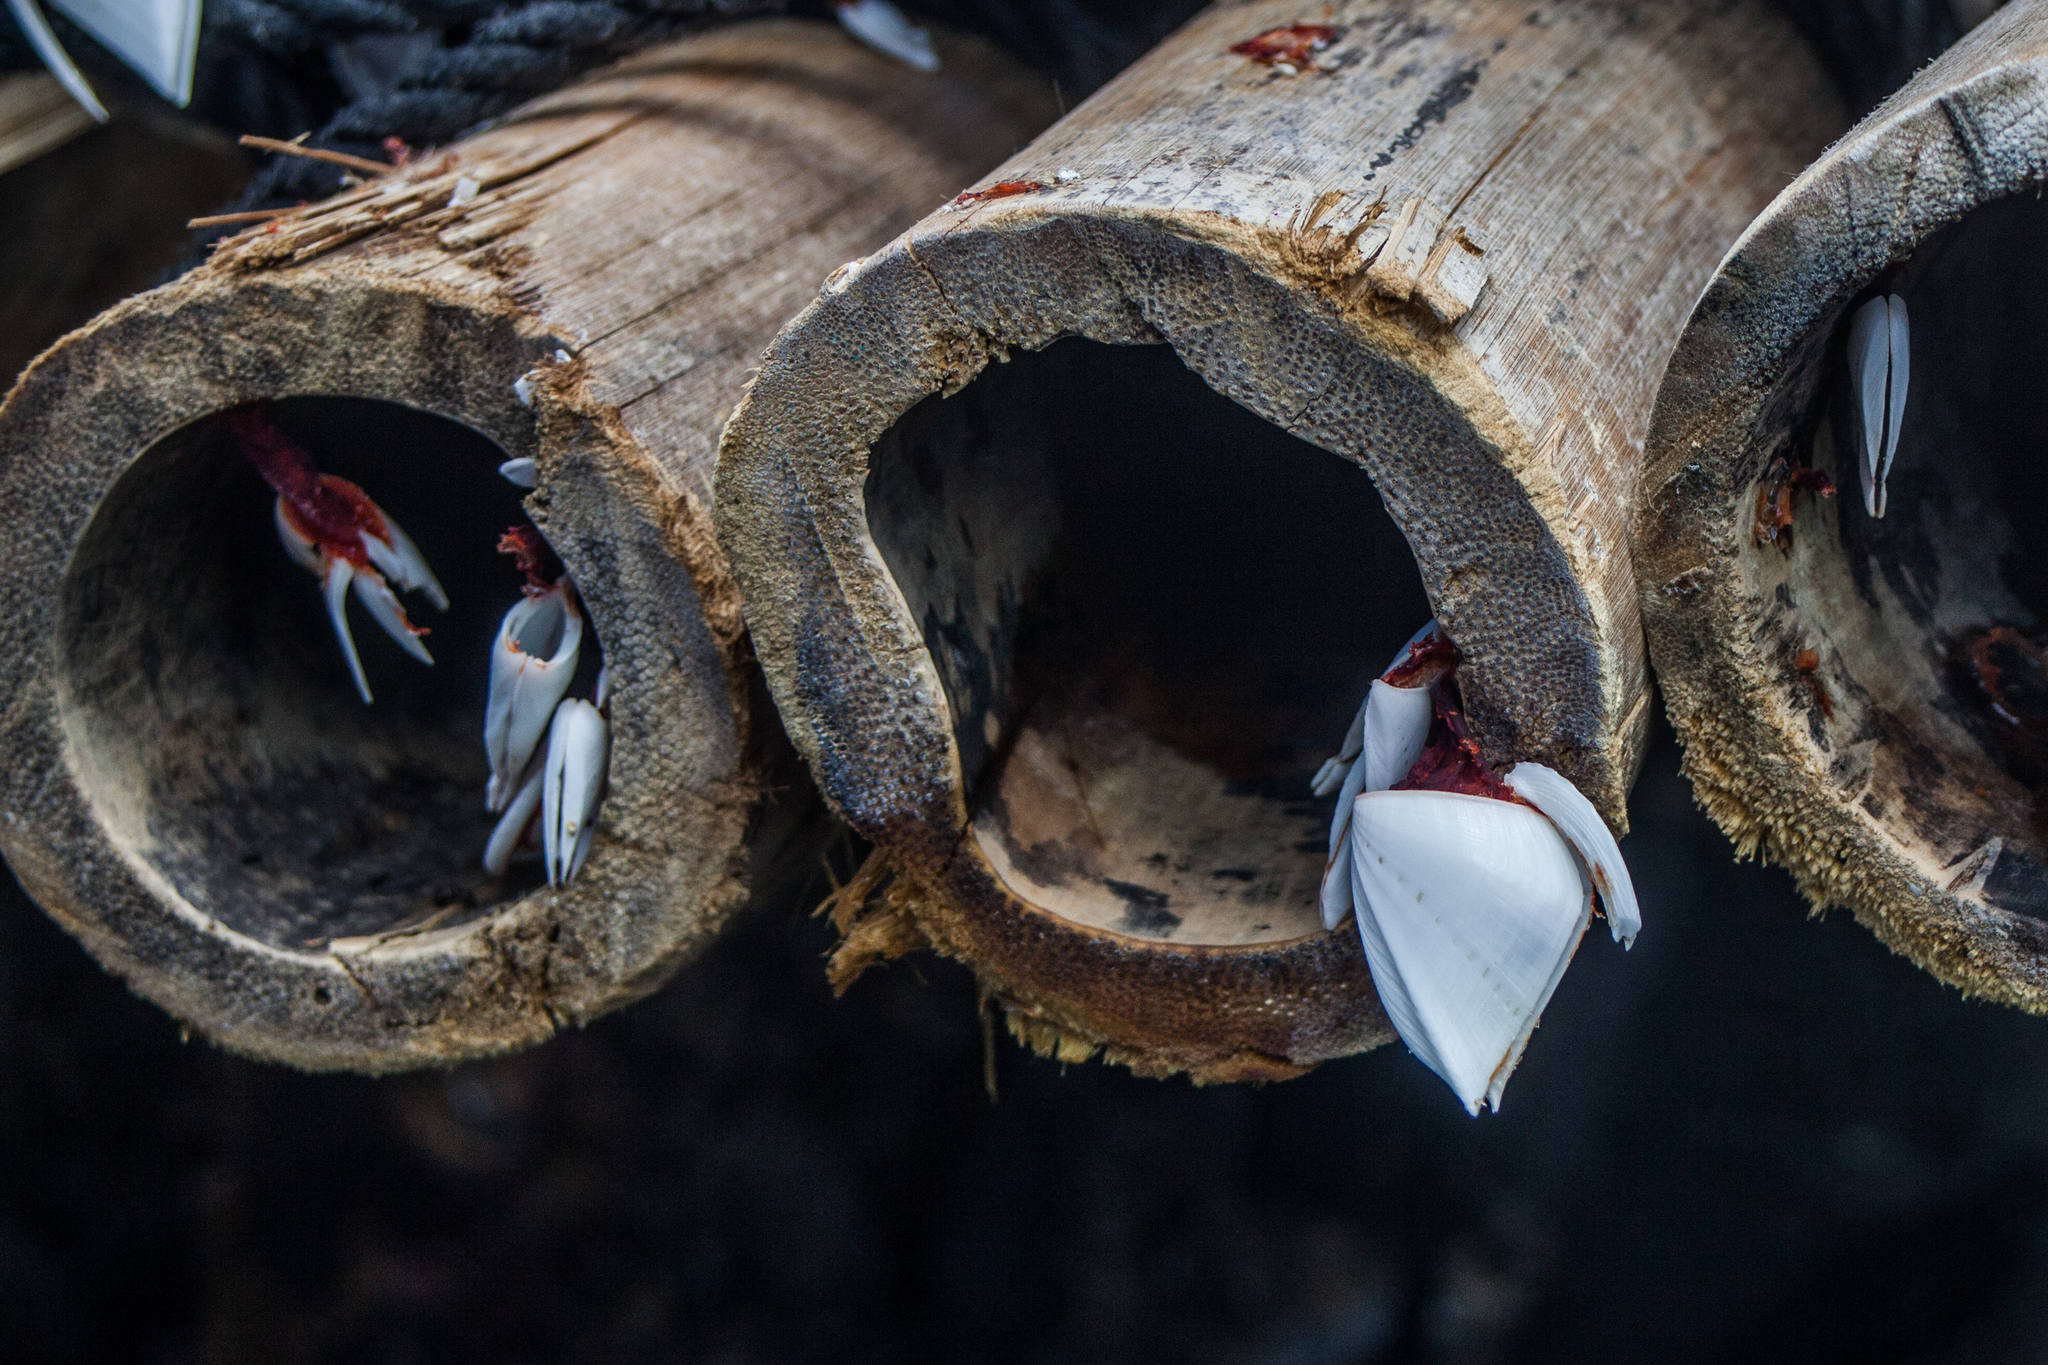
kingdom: Animalia
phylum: Arthropoda
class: Maxillopoda
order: Pedunculata
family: Lepadidae
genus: Lepas
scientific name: Lepas indica
